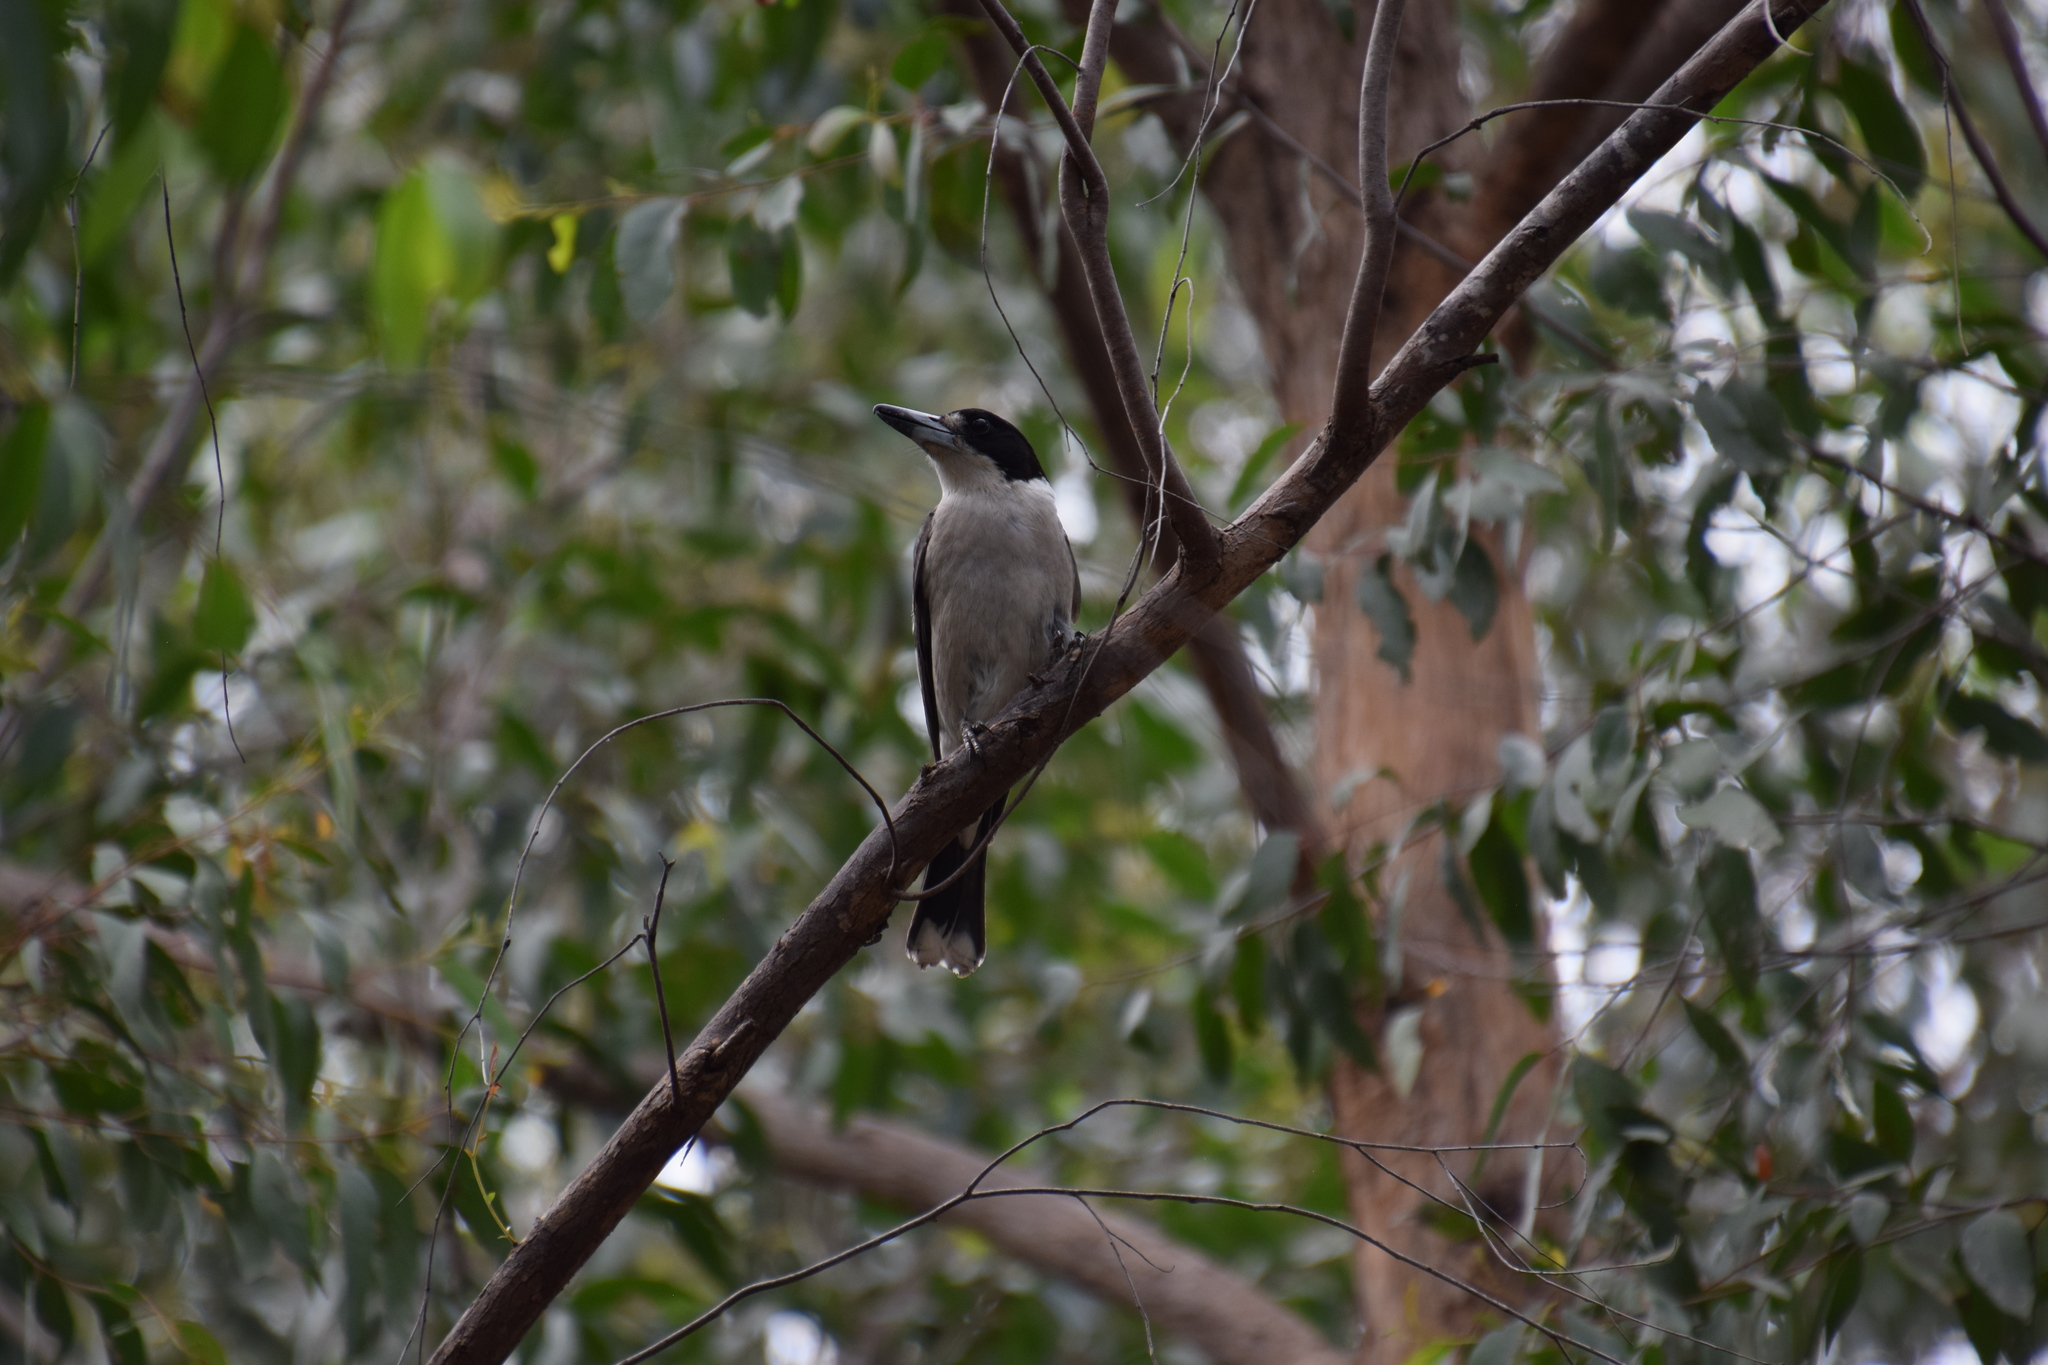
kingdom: Animalia
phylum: Chordata
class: Aves
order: Passeriformes
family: Cracticidae
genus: Cracticus
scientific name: Cracticus torquatus
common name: Grey butcherbird
